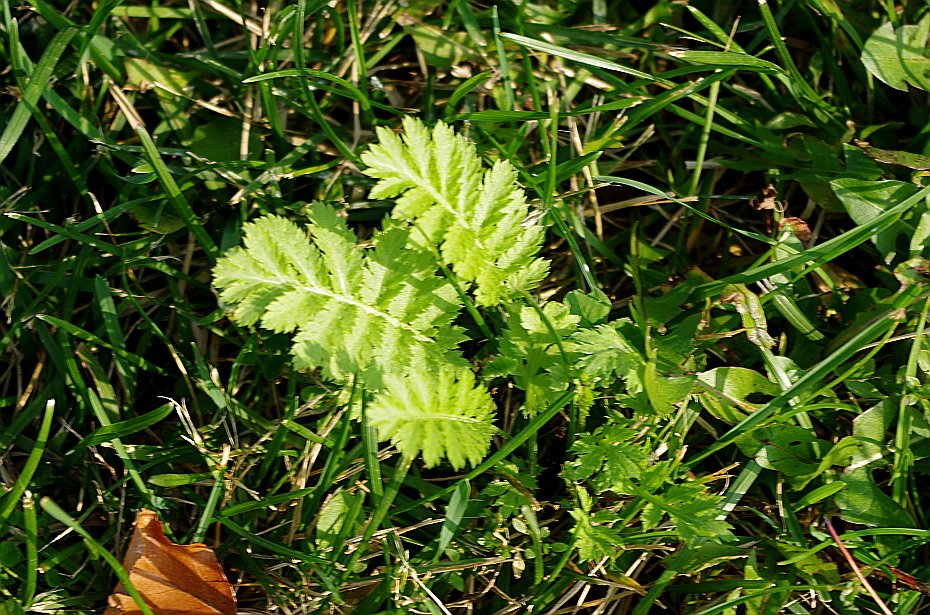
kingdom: Plantae
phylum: Tracheophyta
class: Magnoliopsida
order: Asterales
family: Asteraceae
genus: Tanacetum
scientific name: Tanacetum vulgare
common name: Common tansy
